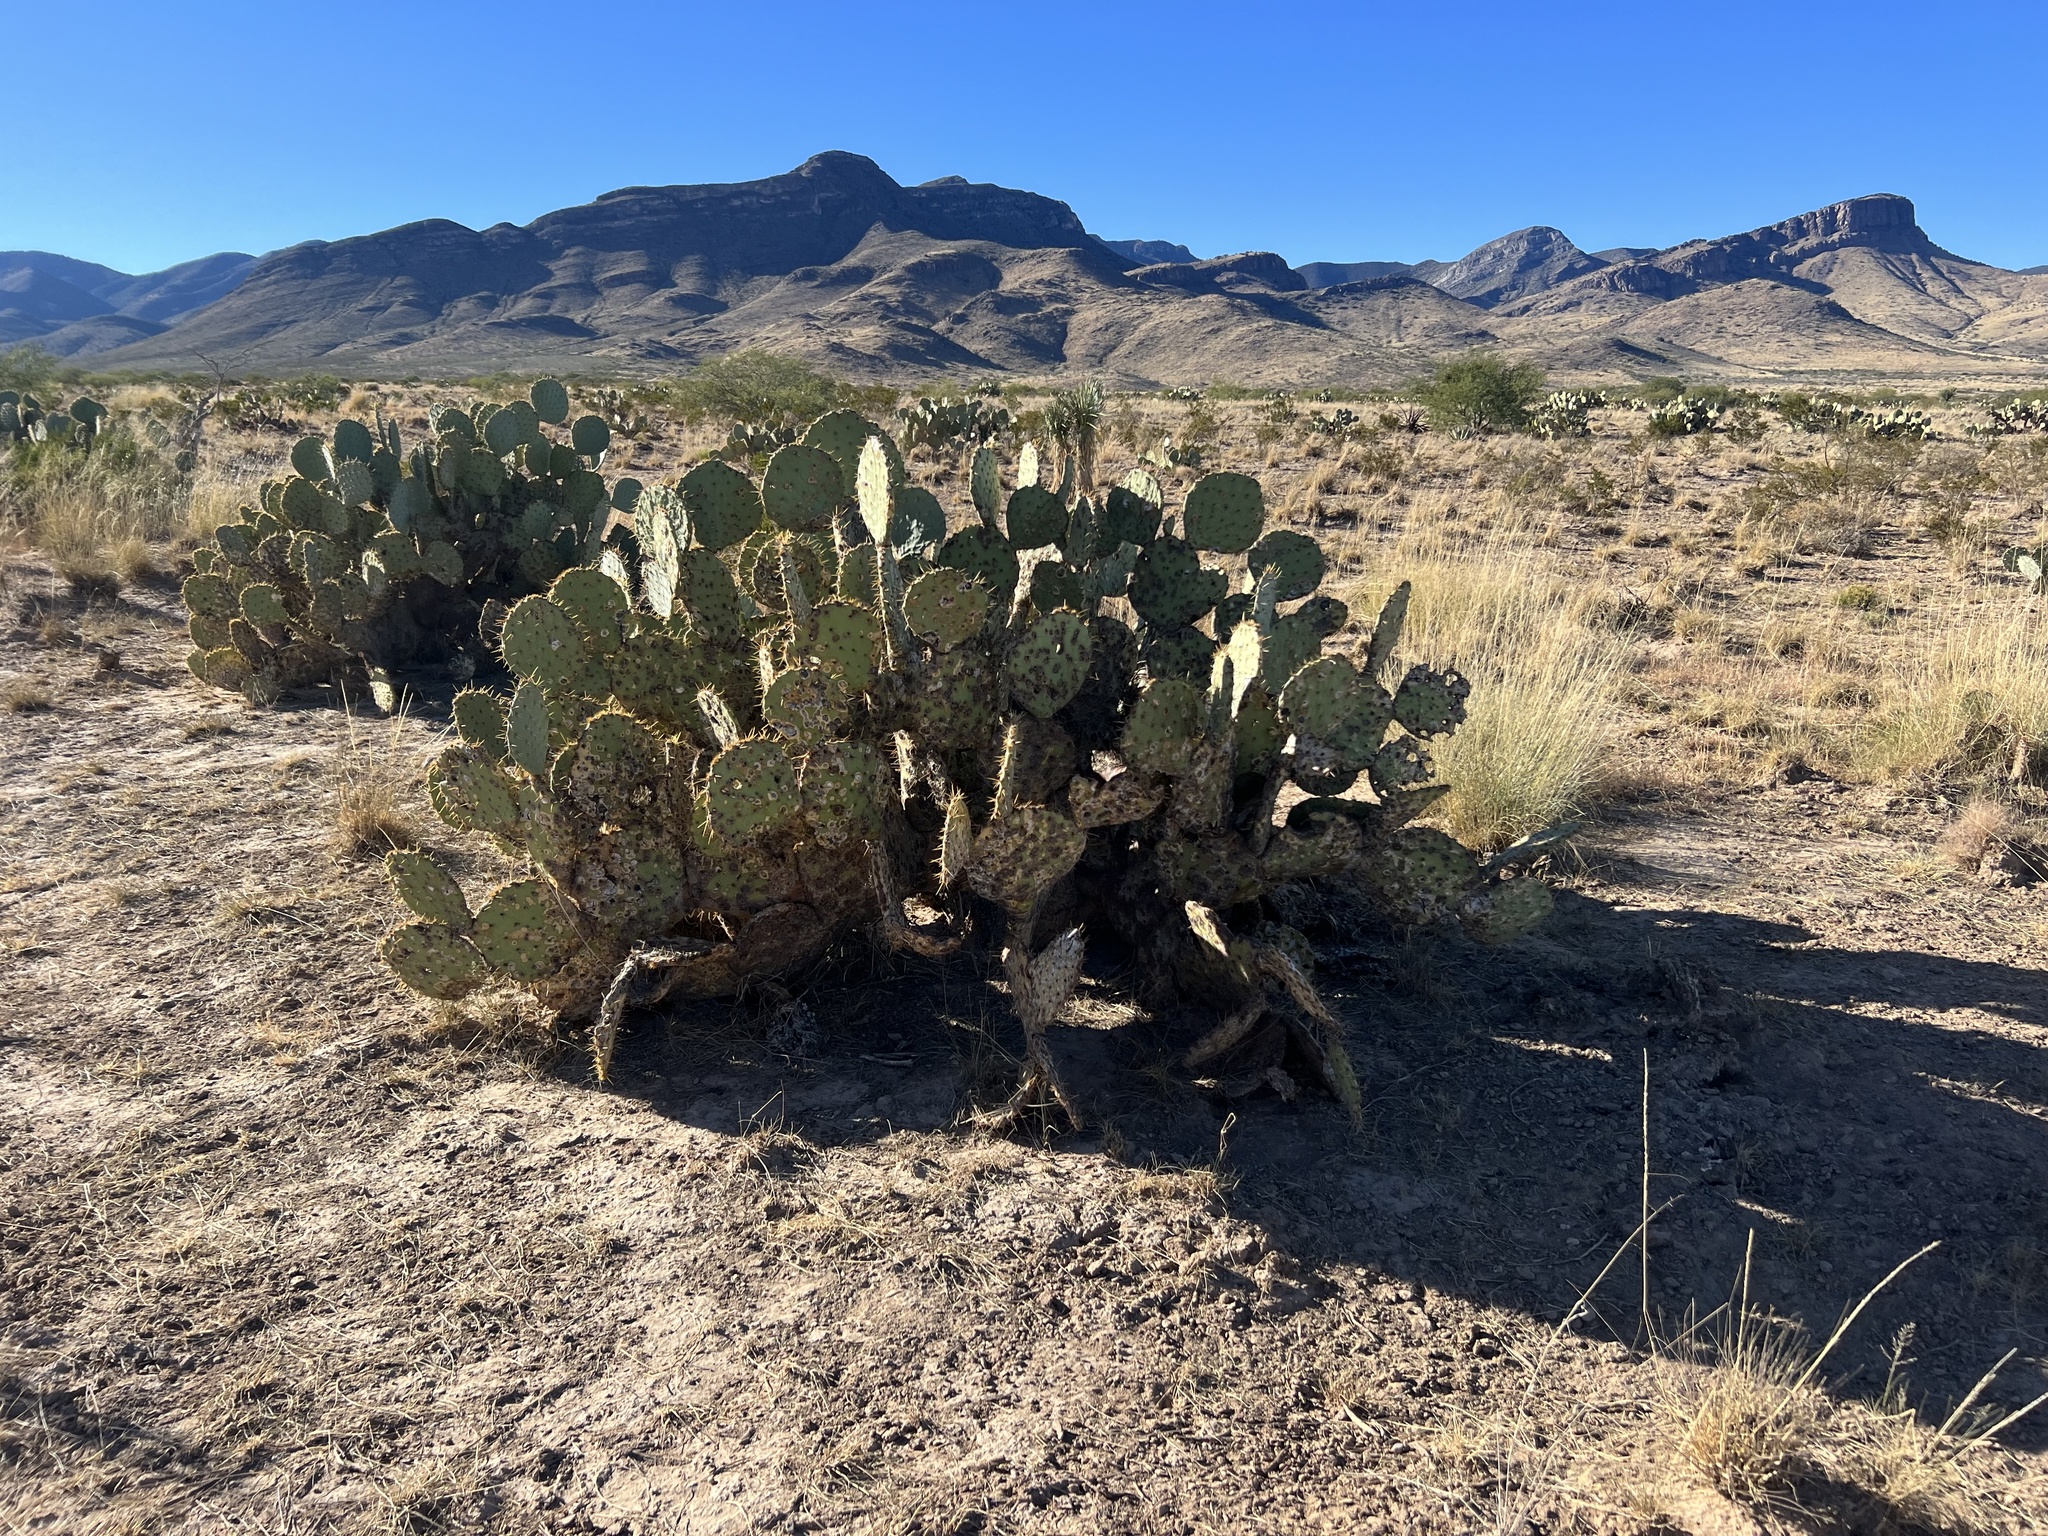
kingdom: Plantae
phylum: Tracheophyta
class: Magnoliopsida
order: Caryophyllales
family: Cactaceae
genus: Opuntia
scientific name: Opuntia engelmannii
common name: Cactus-apple
